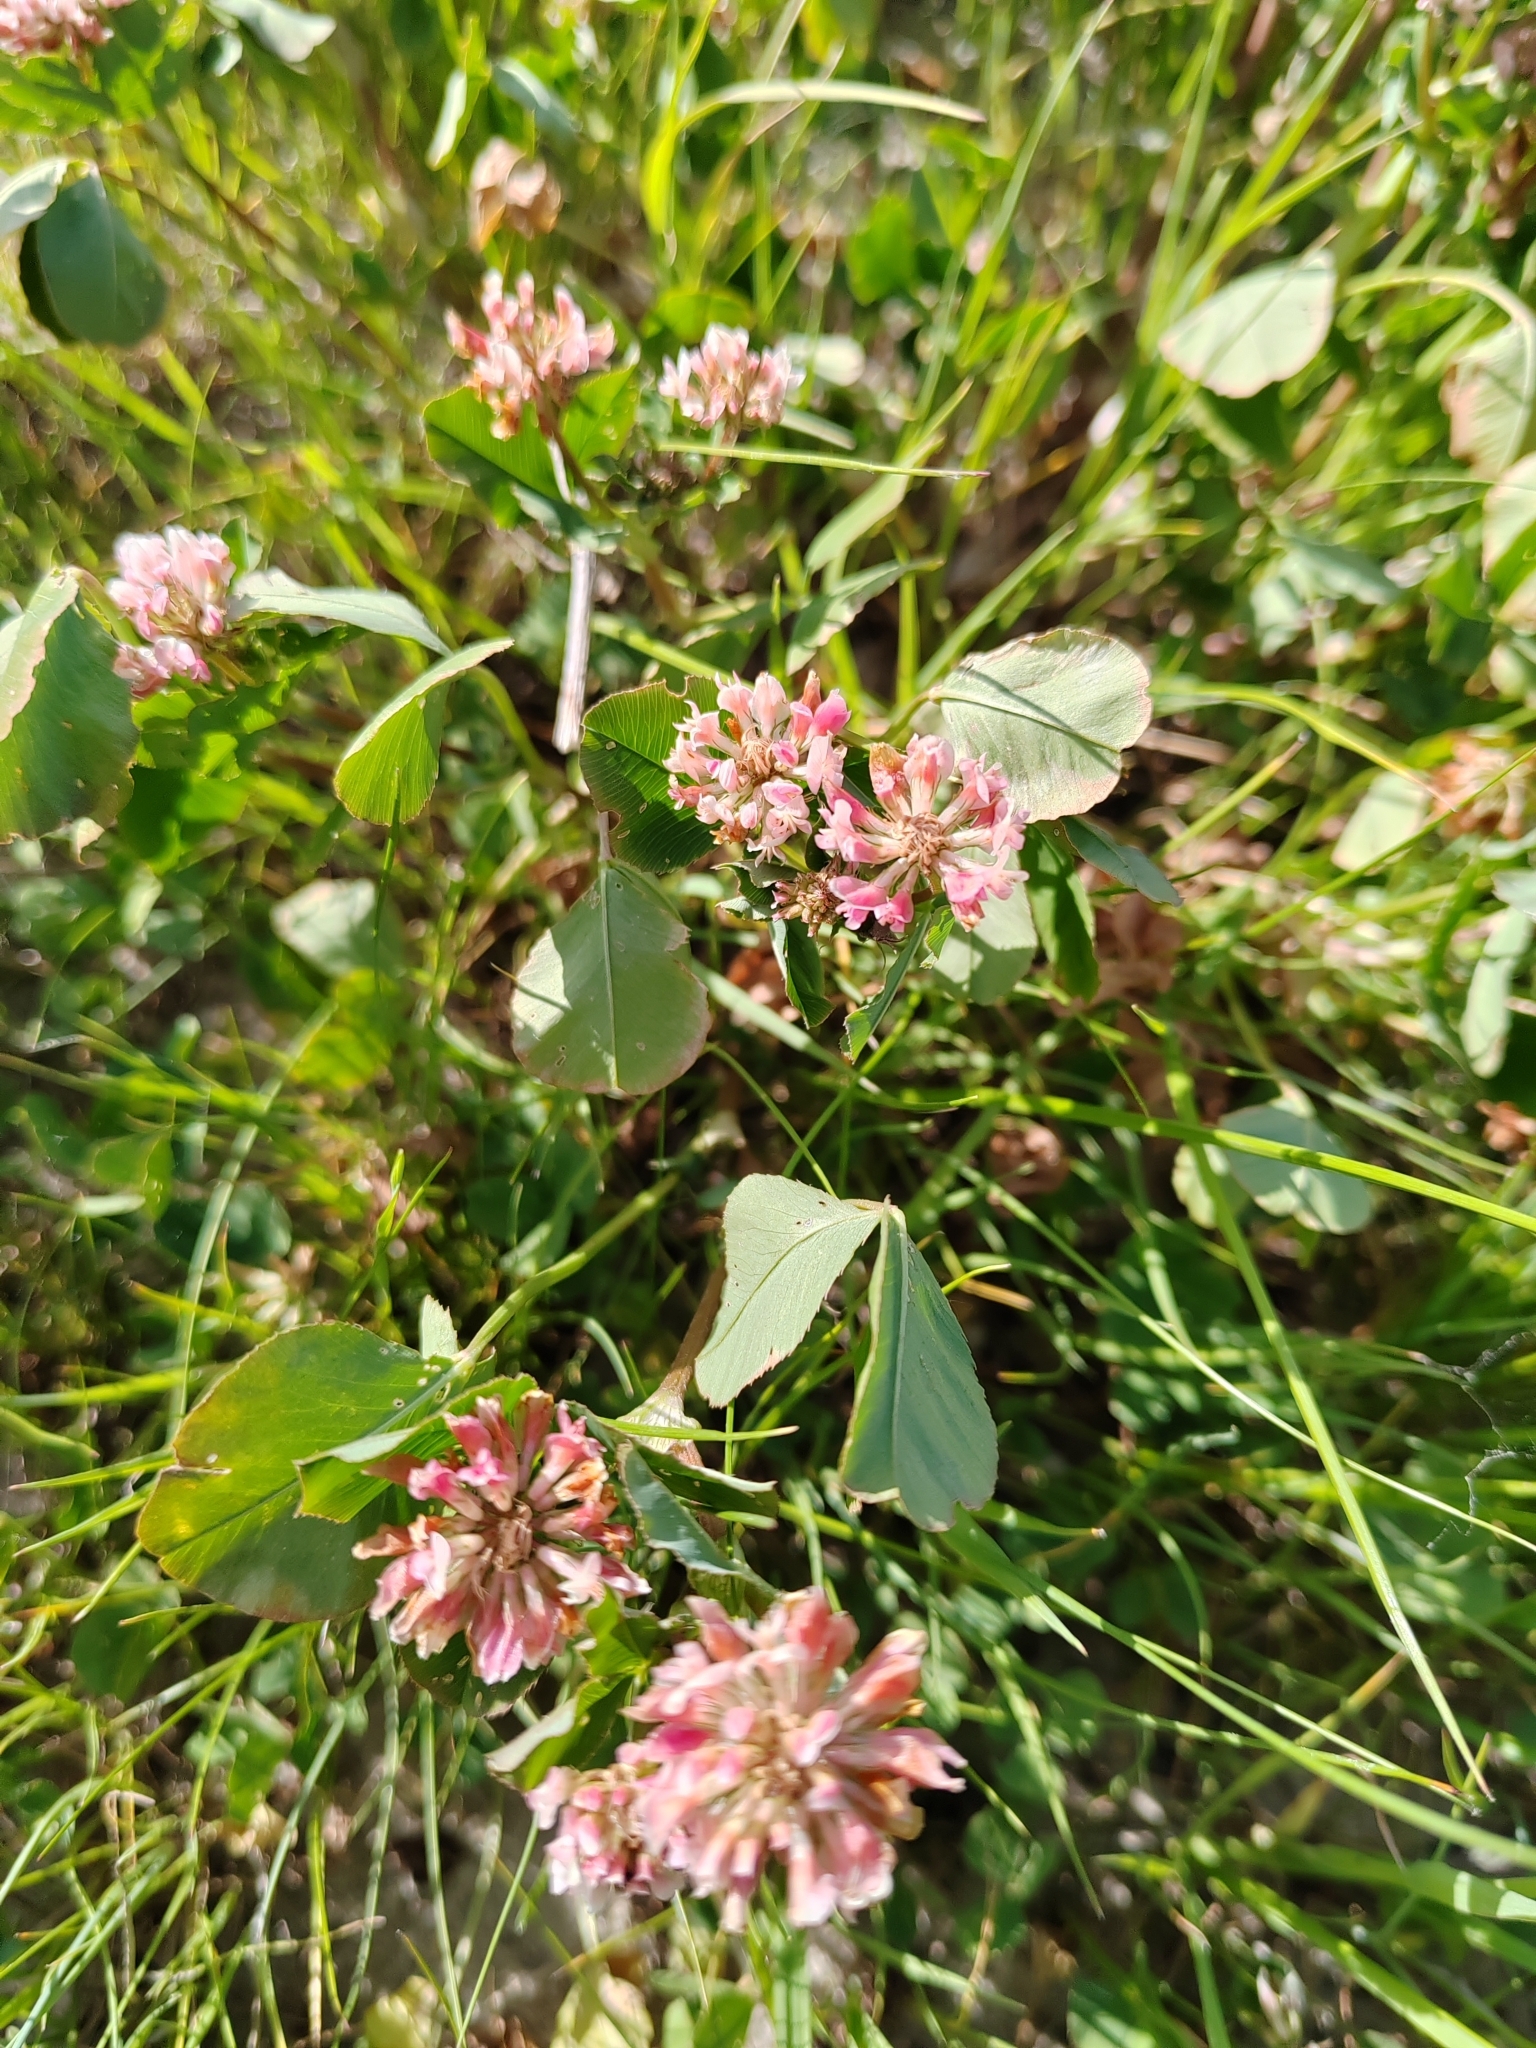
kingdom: Plantae
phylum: Tracheophyta
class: Magnoliopsida
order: Fabales
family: Fabaceae
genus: Trifolium
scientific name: Trifolium hybridum
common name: Alsike clover
